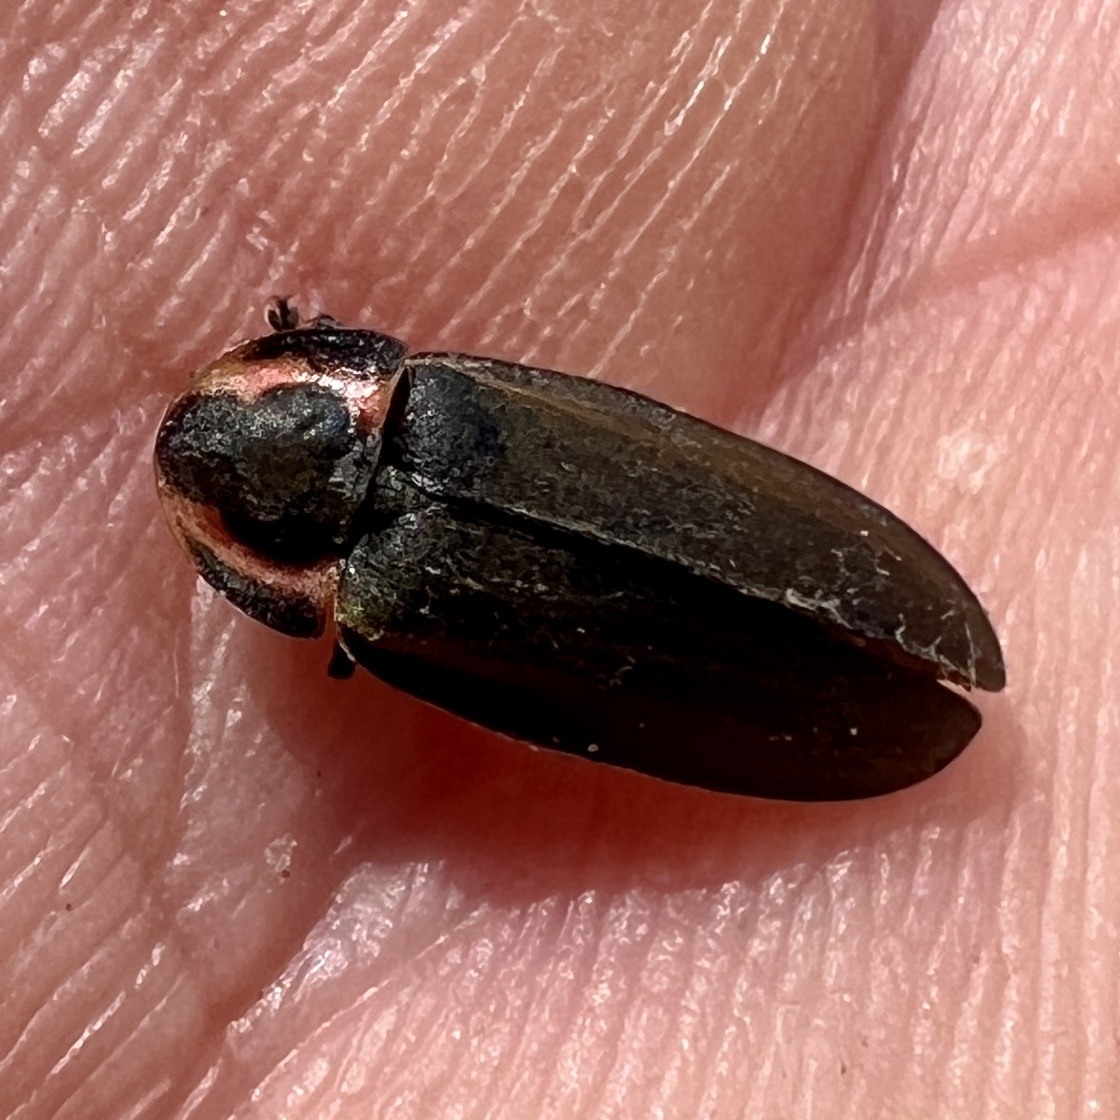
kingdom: Animalia
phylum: Arthropoda
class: Insecta
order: Coleoptera
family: Lampyridae
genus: Photinus
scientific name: Photinus corrusca
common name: Winter firefly
